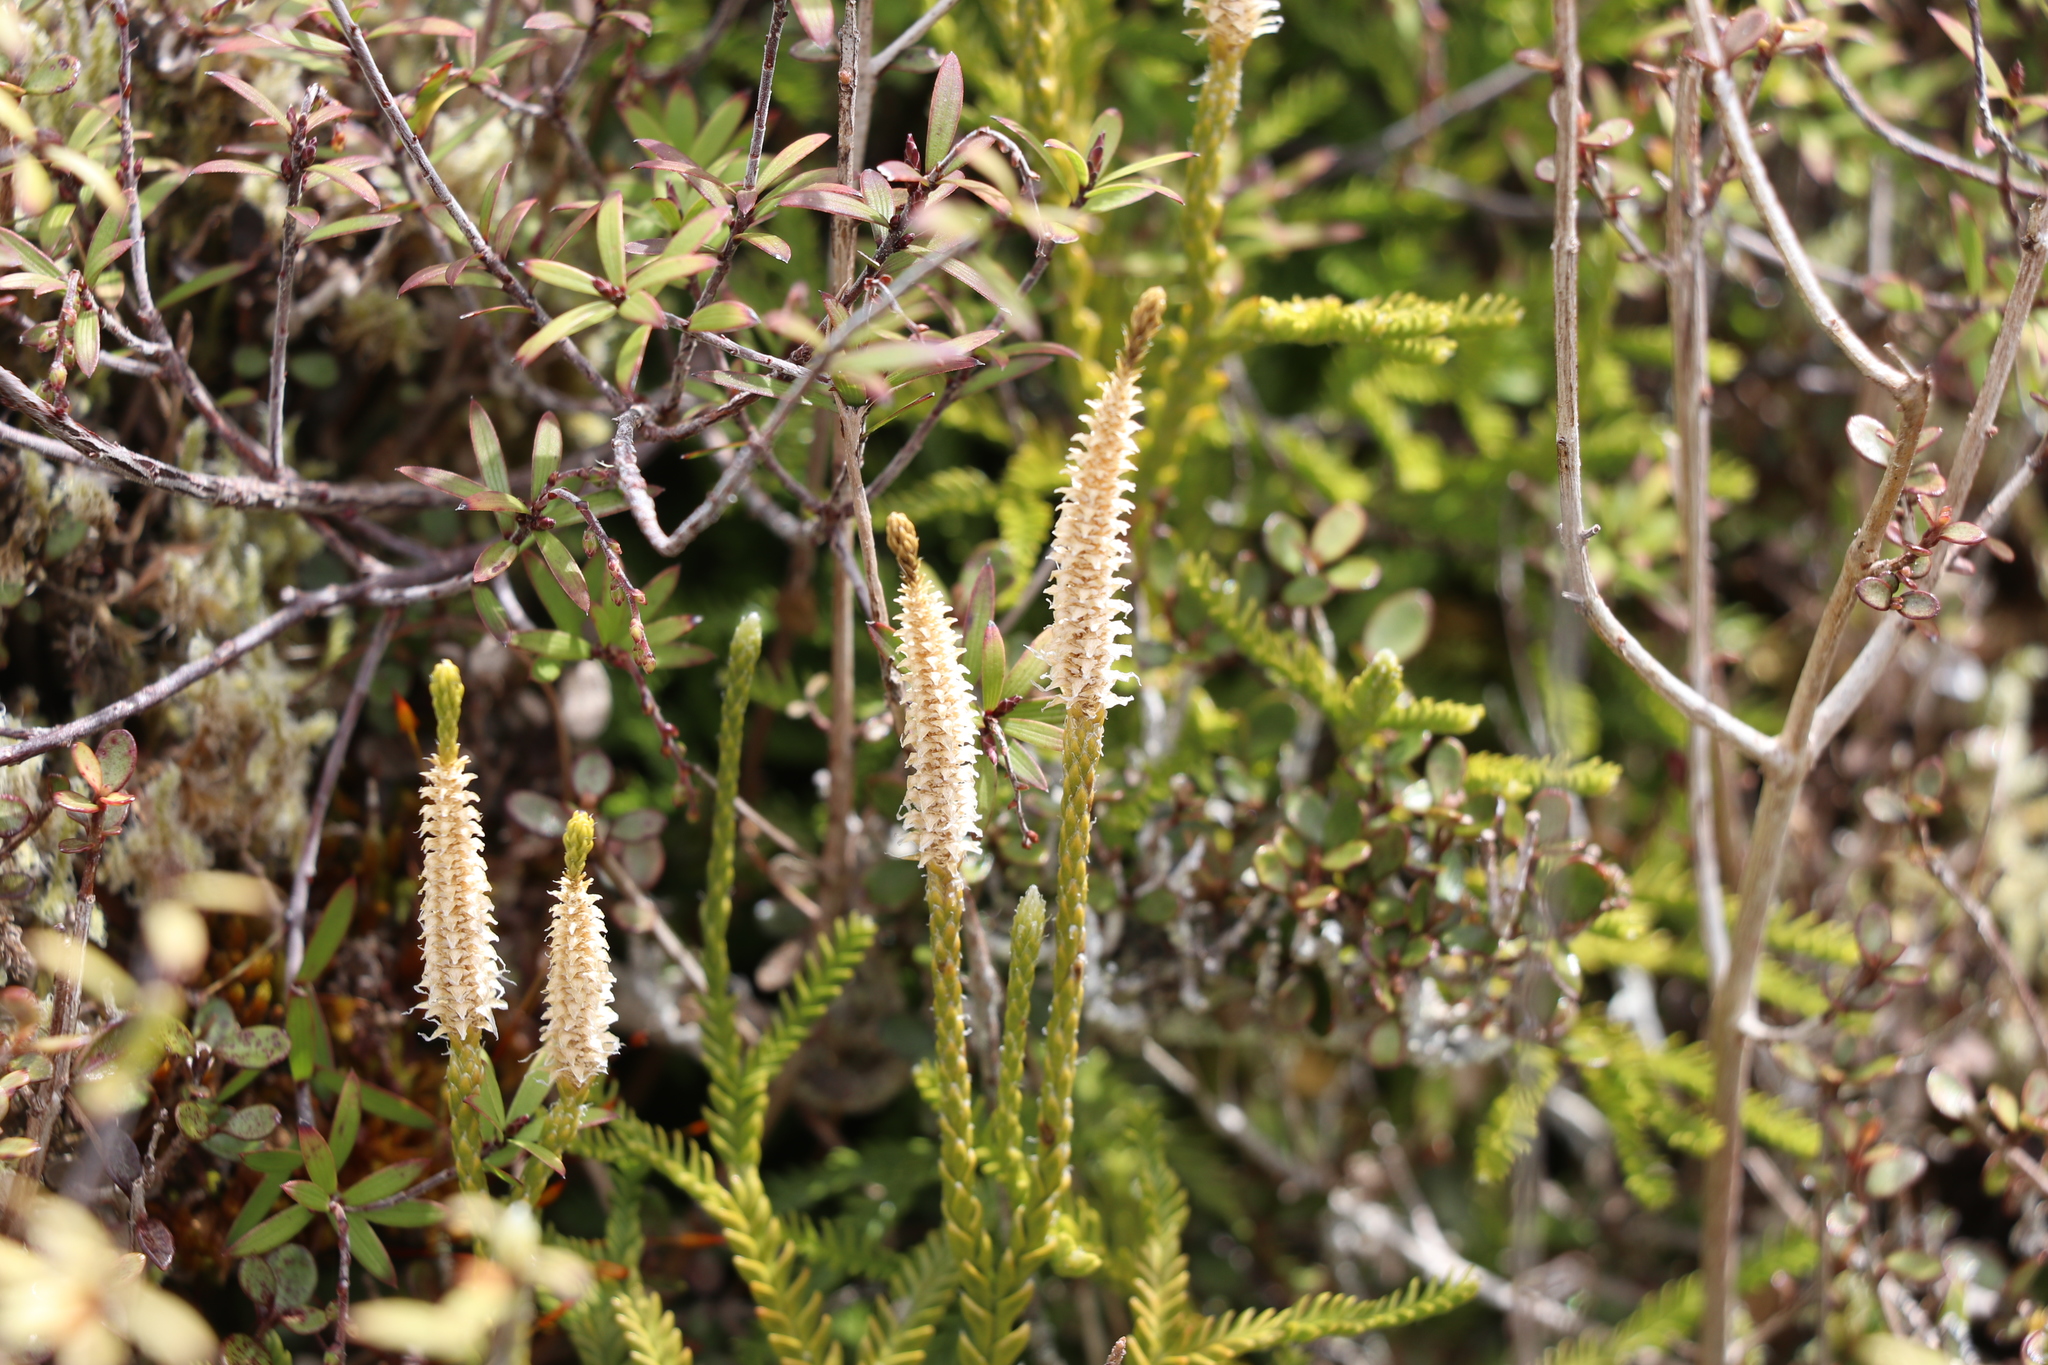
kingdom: Plantae
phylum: Tracheophyta
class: Lycopodiopsida
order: Lycopodiales
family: Lycopodiaceae
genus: Diphasium
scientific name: Diphasium scariosum
